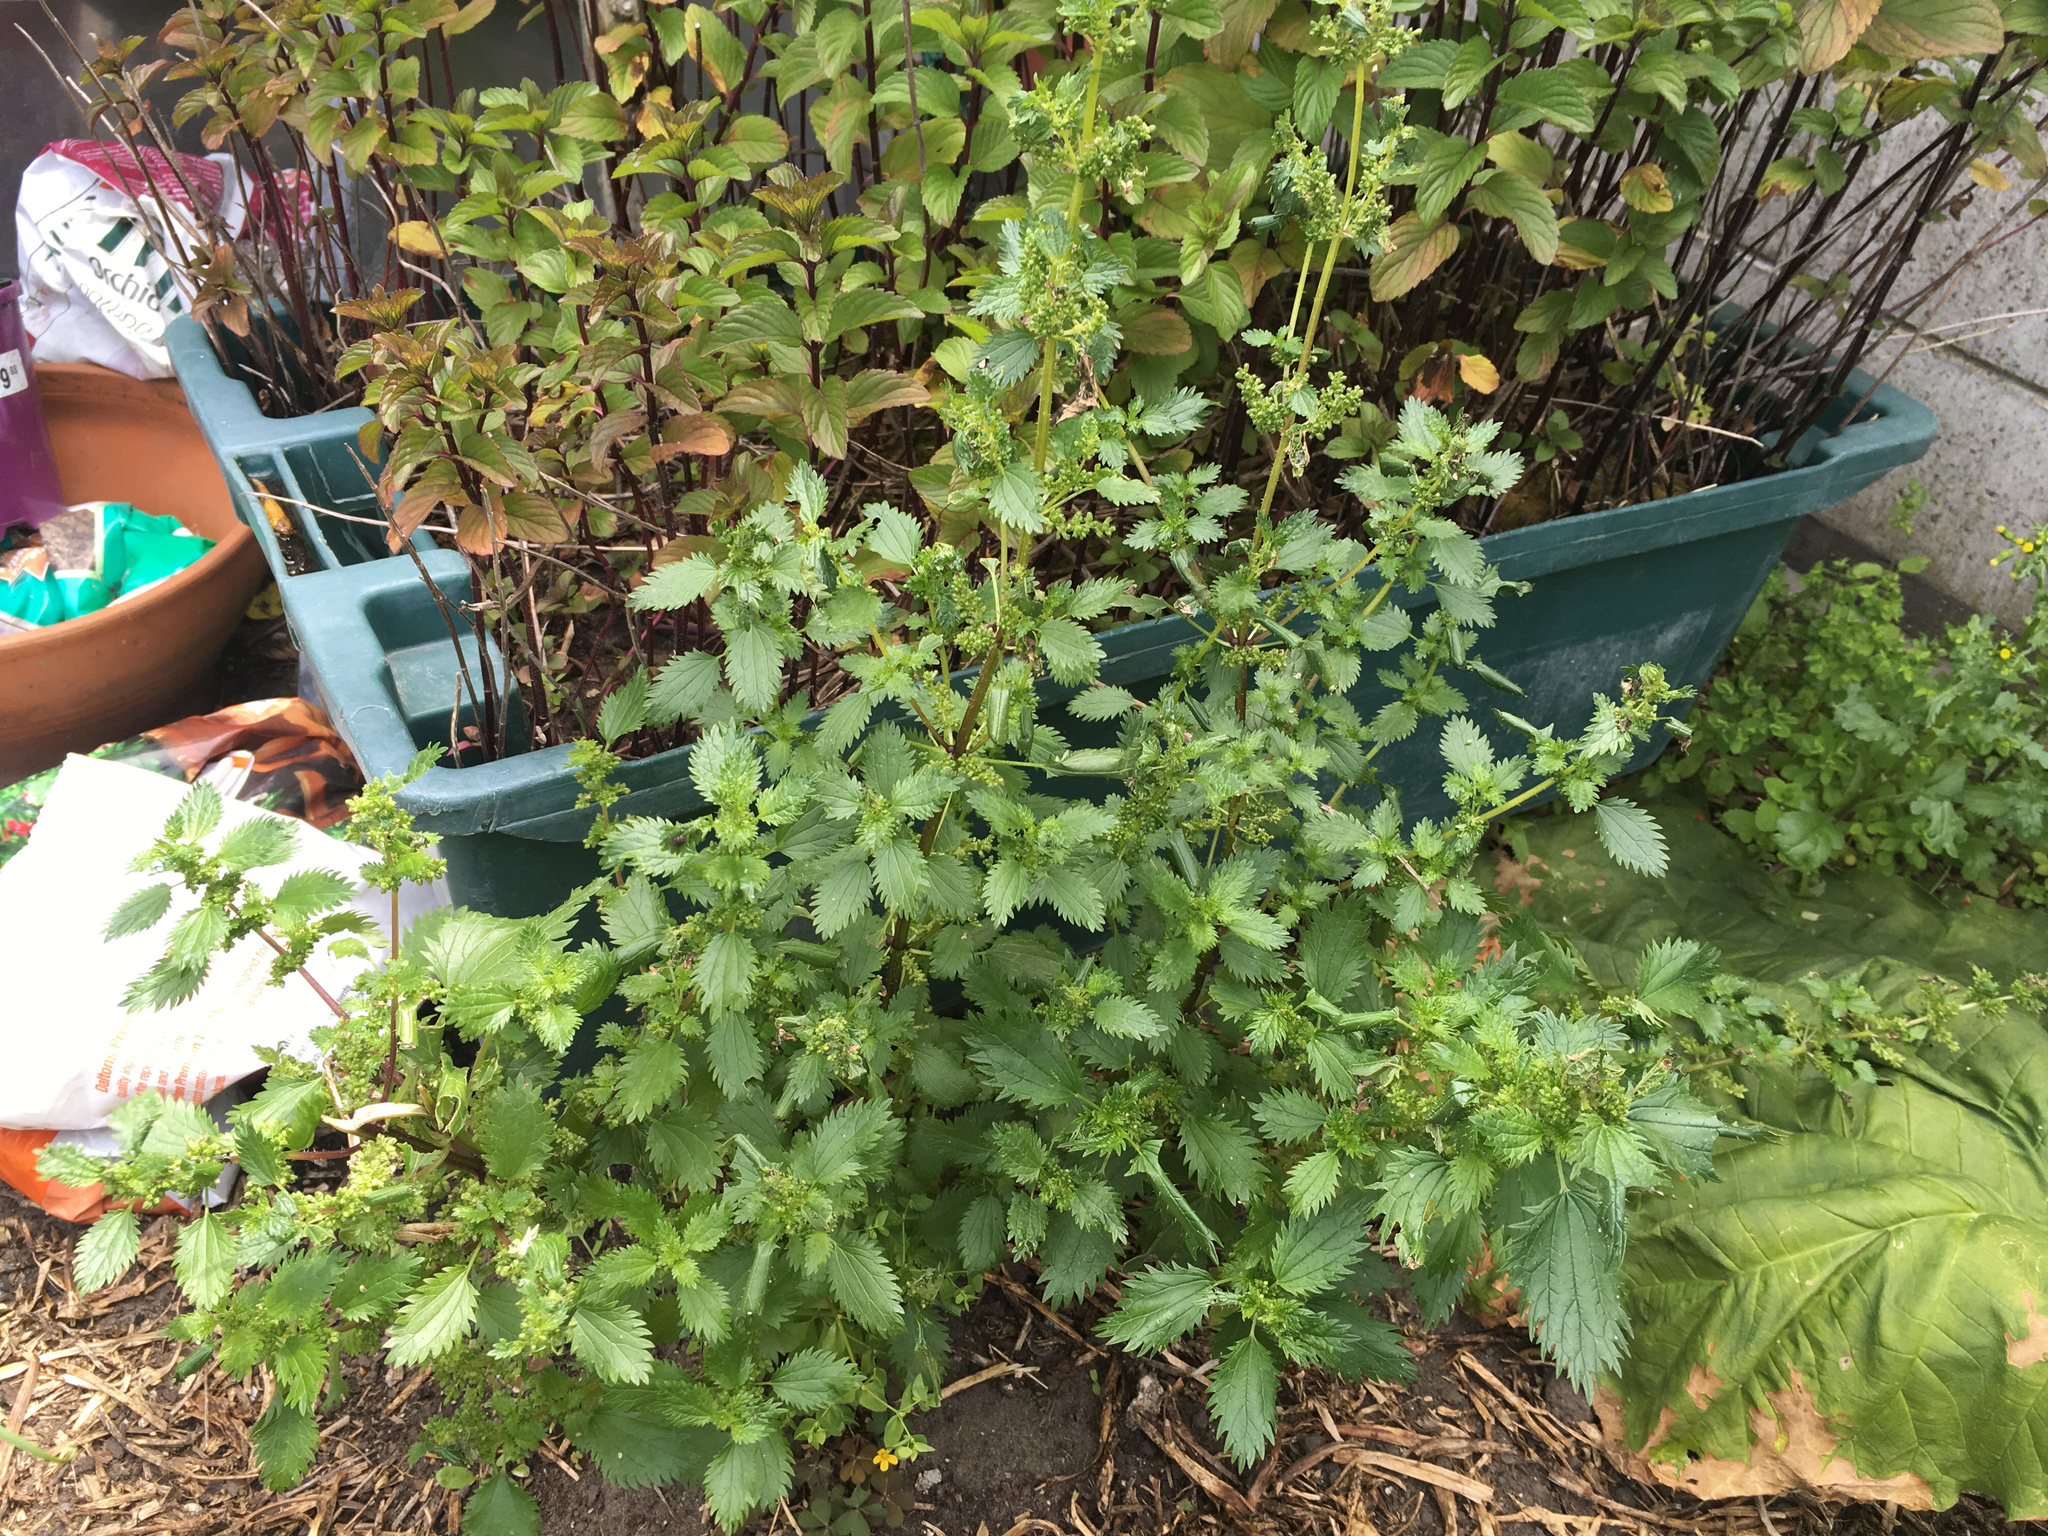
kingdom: Plantae
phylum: Tracheophyta
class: Magnoliopsida
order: Rosales
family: Urticaceae
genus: Urtica
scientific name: Urtica urens
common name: Dwarf nettle
